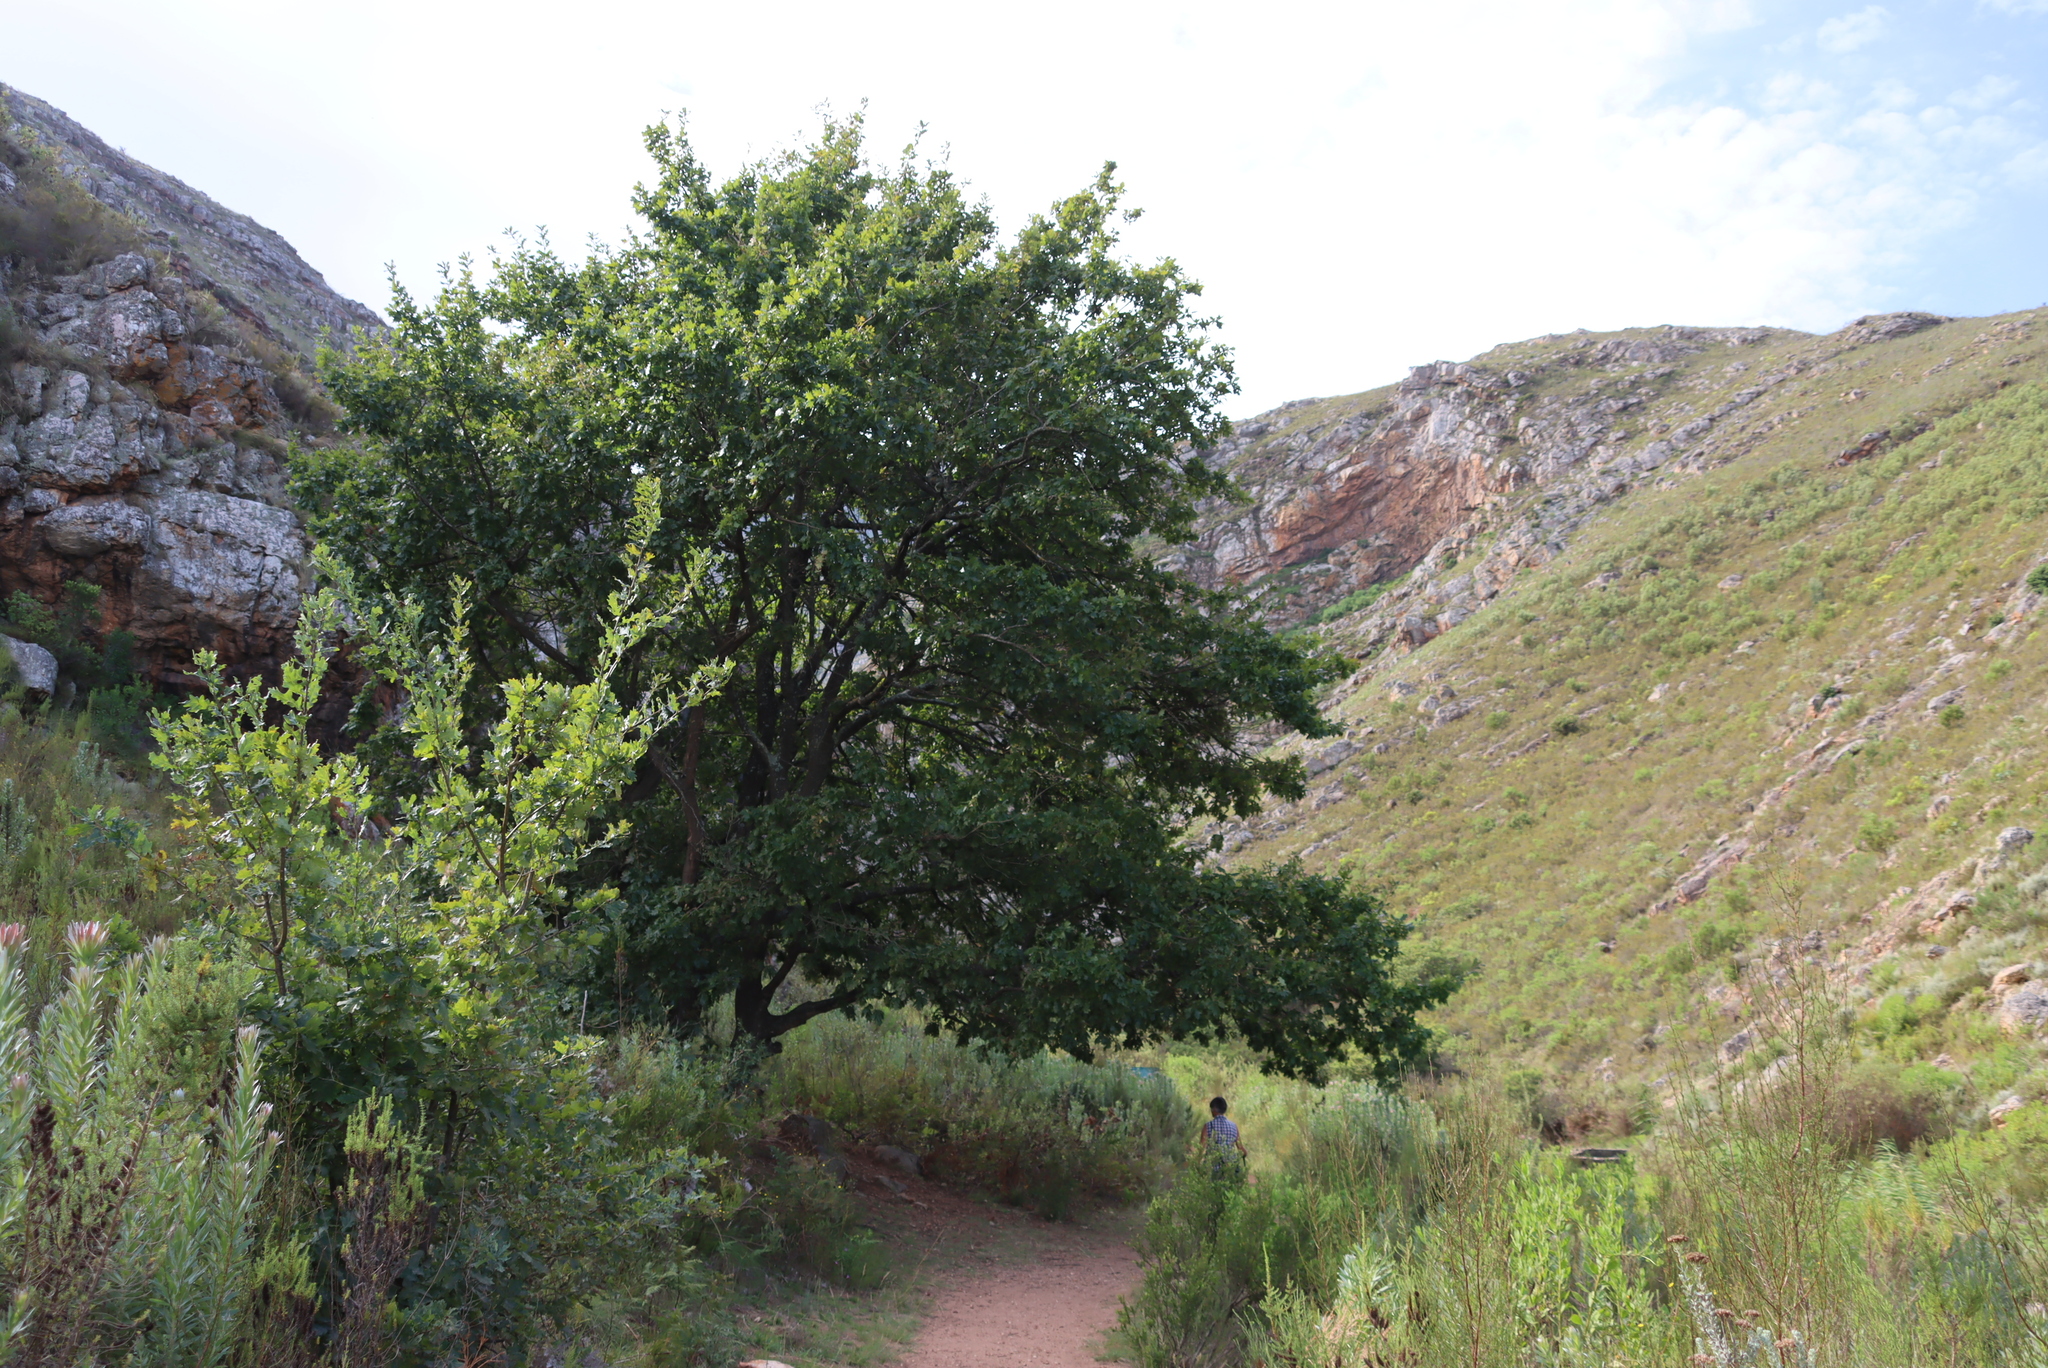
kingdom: Plantae
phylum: Tracheophyta
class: Magnoliopsida
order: Fagales
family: Fagaceae
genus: Quercus
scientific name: Quercus robur
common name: Pedunculate oak
